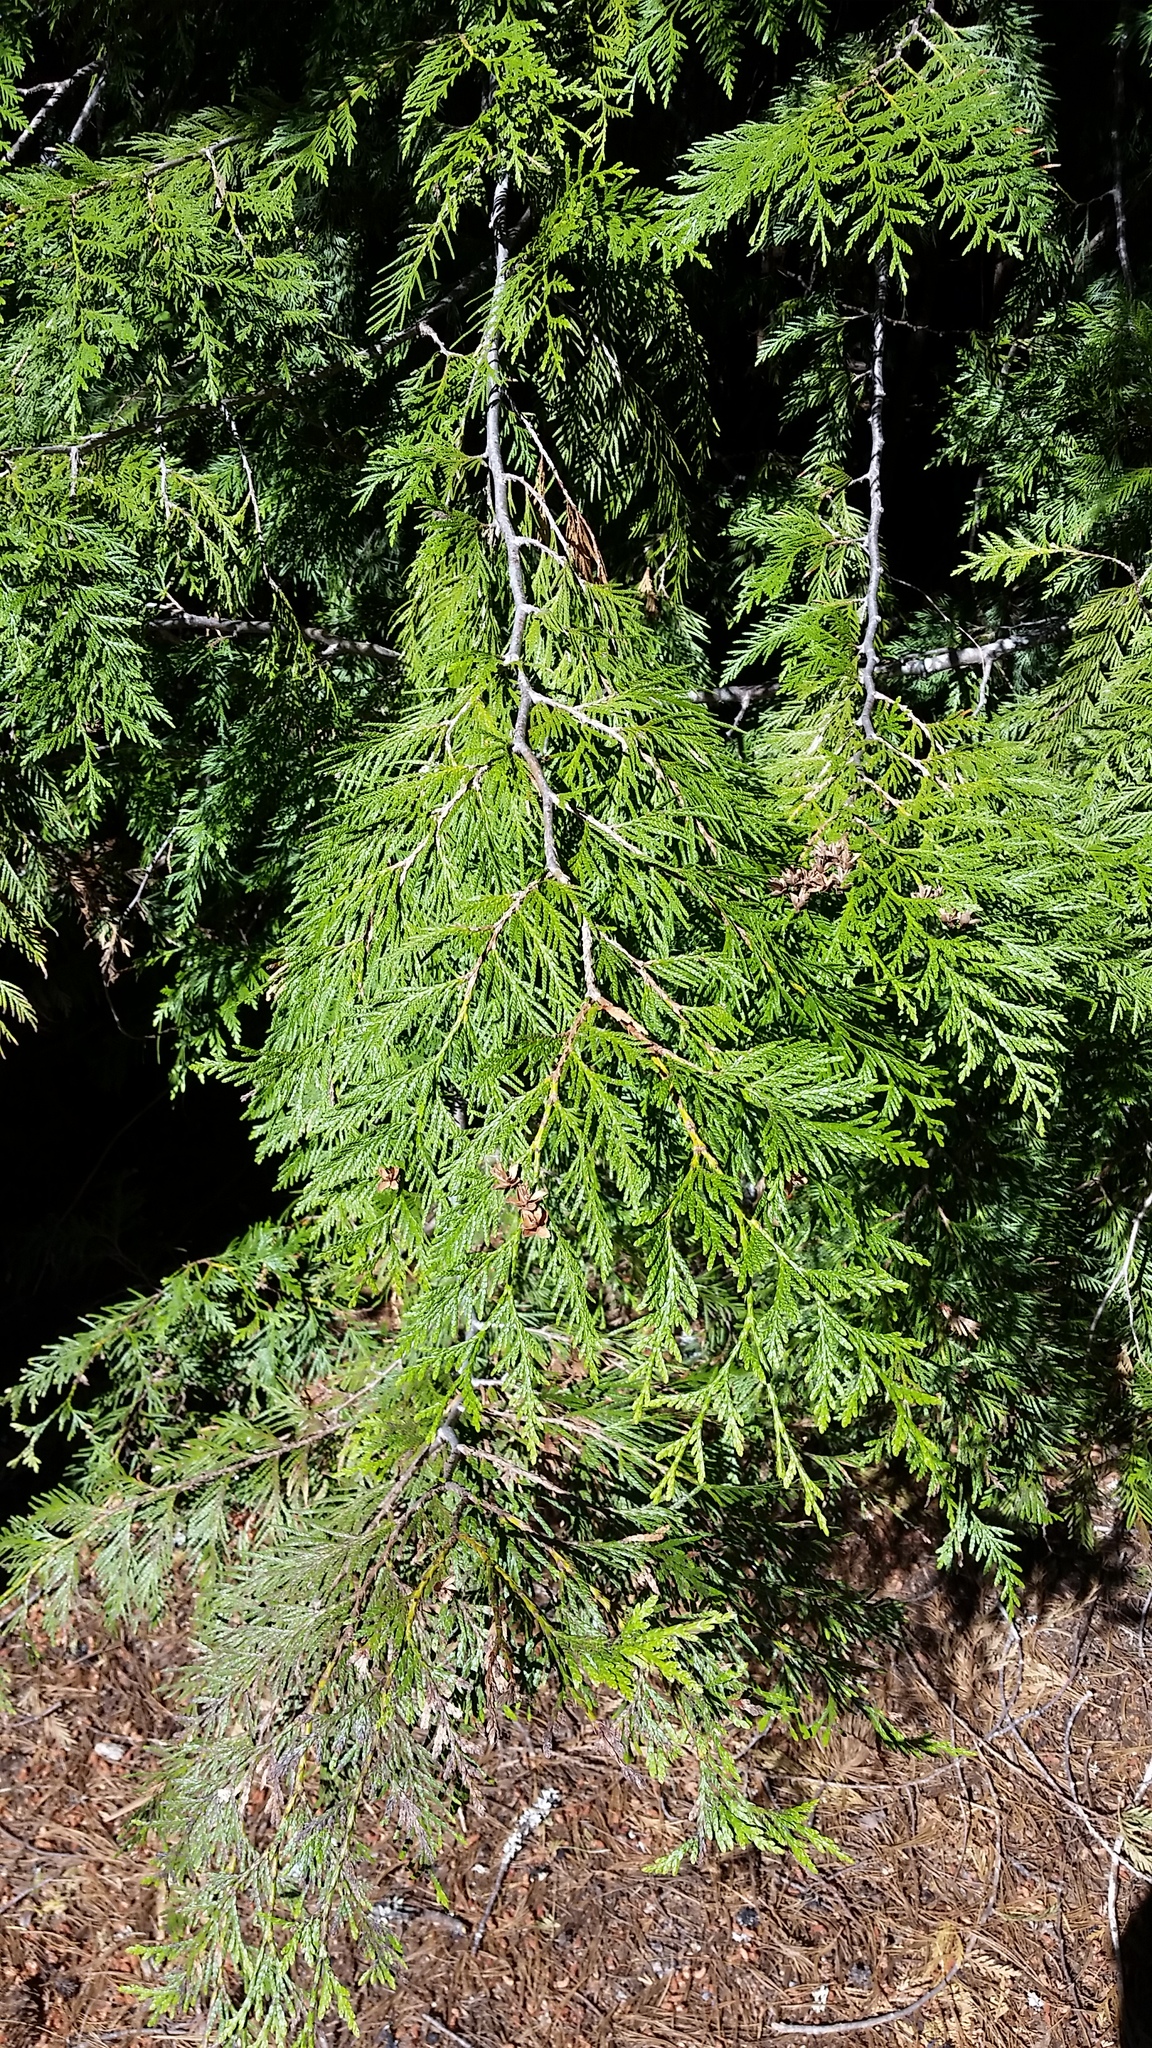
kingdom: Plantae
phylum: Tracheophyta
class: Pinopsida
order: Pinales
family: Cupressaceae
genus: Thuja
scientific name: Thuja plicata
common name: Western red-cedar
